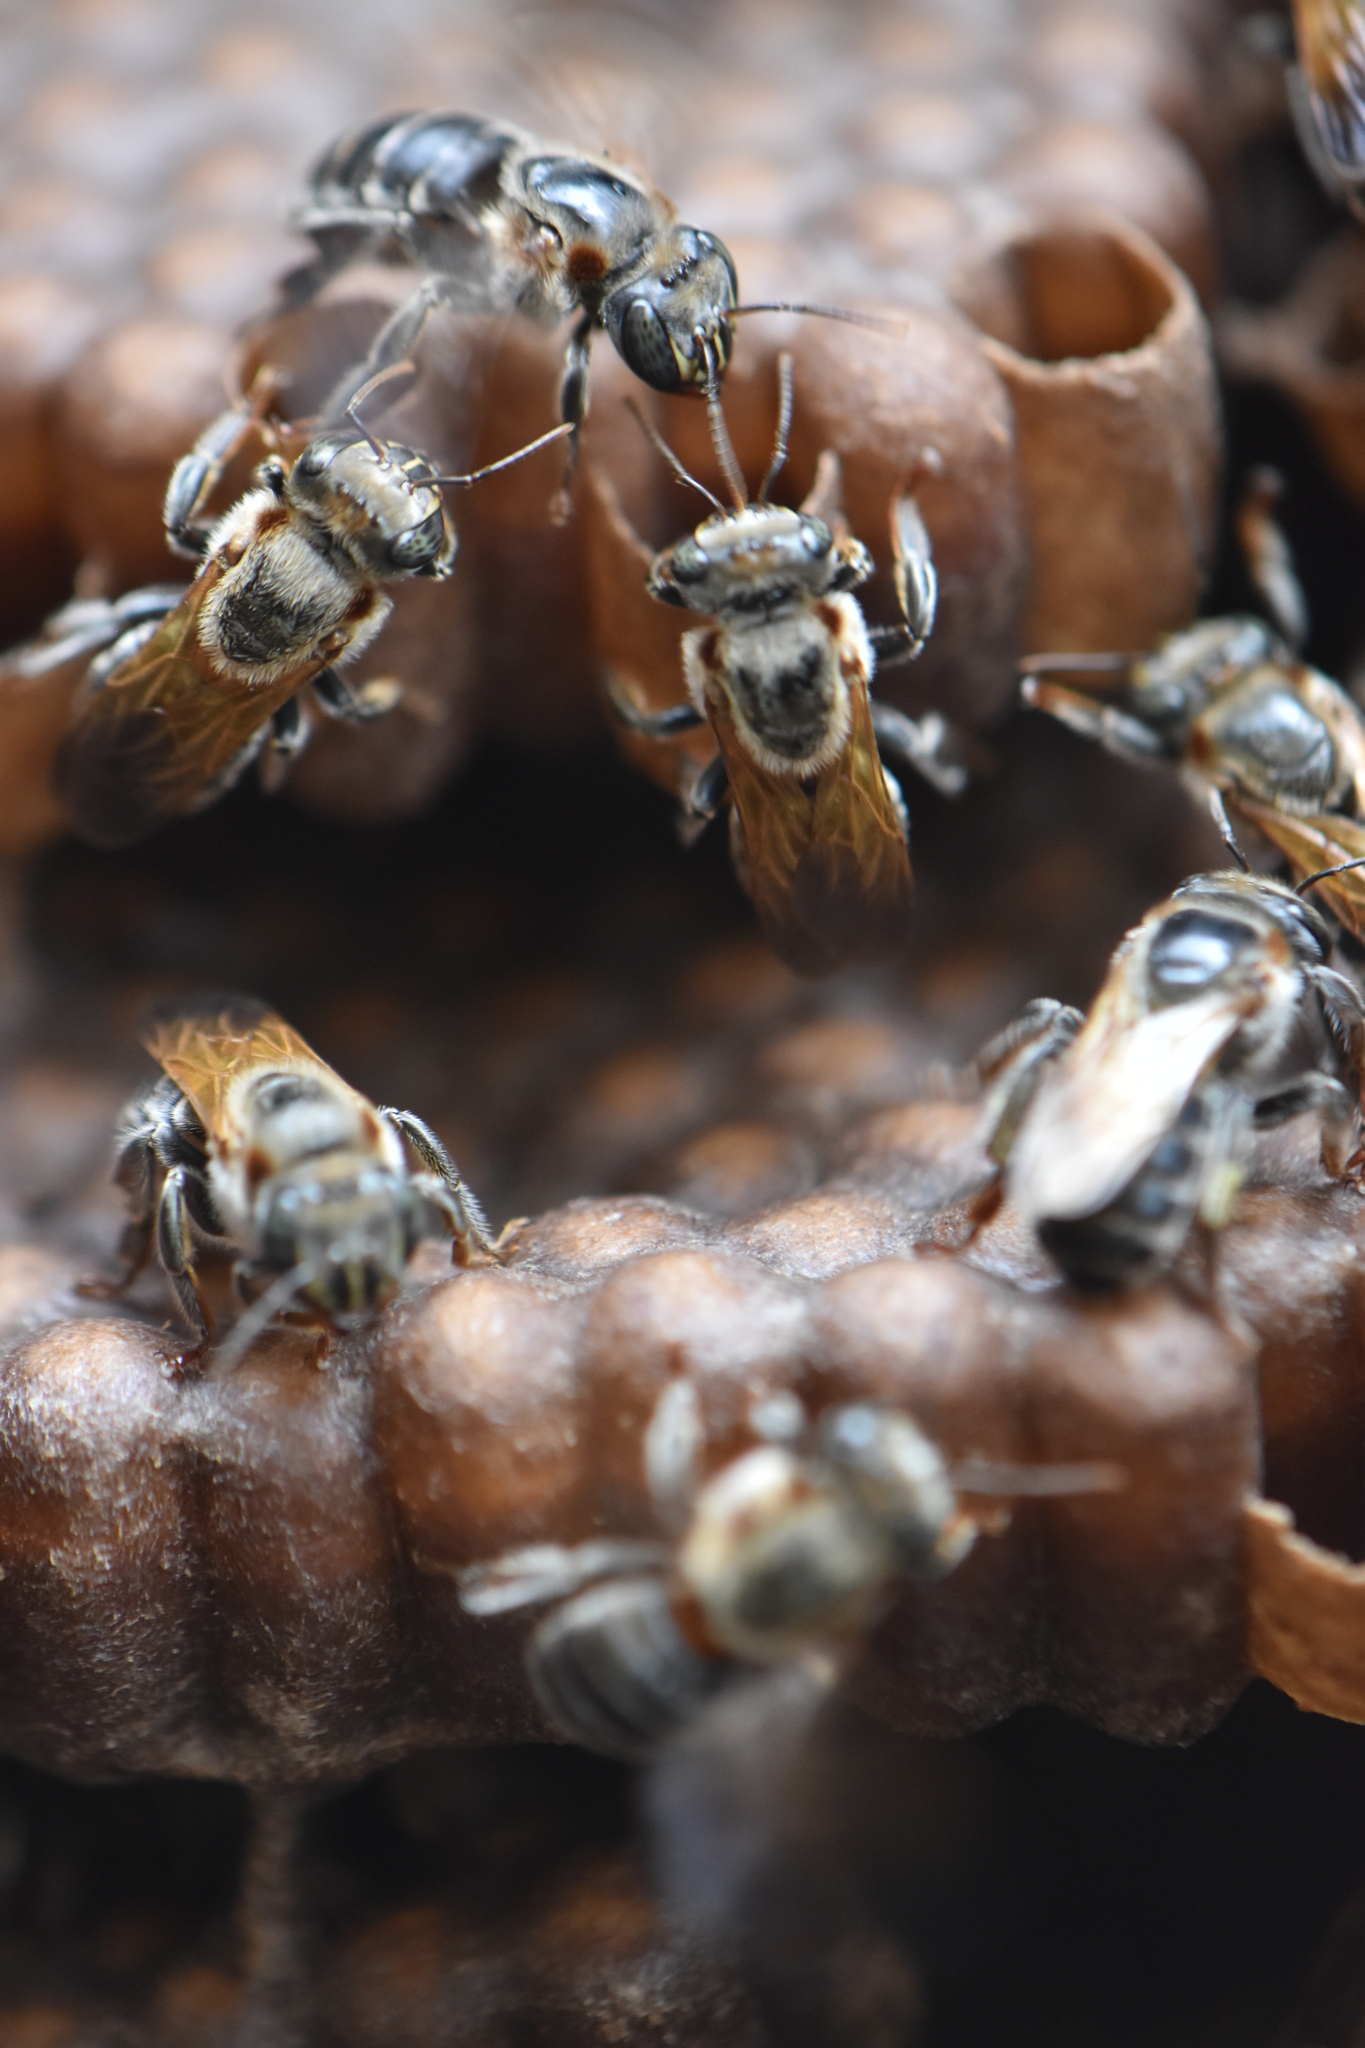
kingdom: Animalia
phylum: Arthropoda
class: Insecta
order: Hymenoptera
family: Apidae
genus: Melipona
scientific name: Melipona grandis
